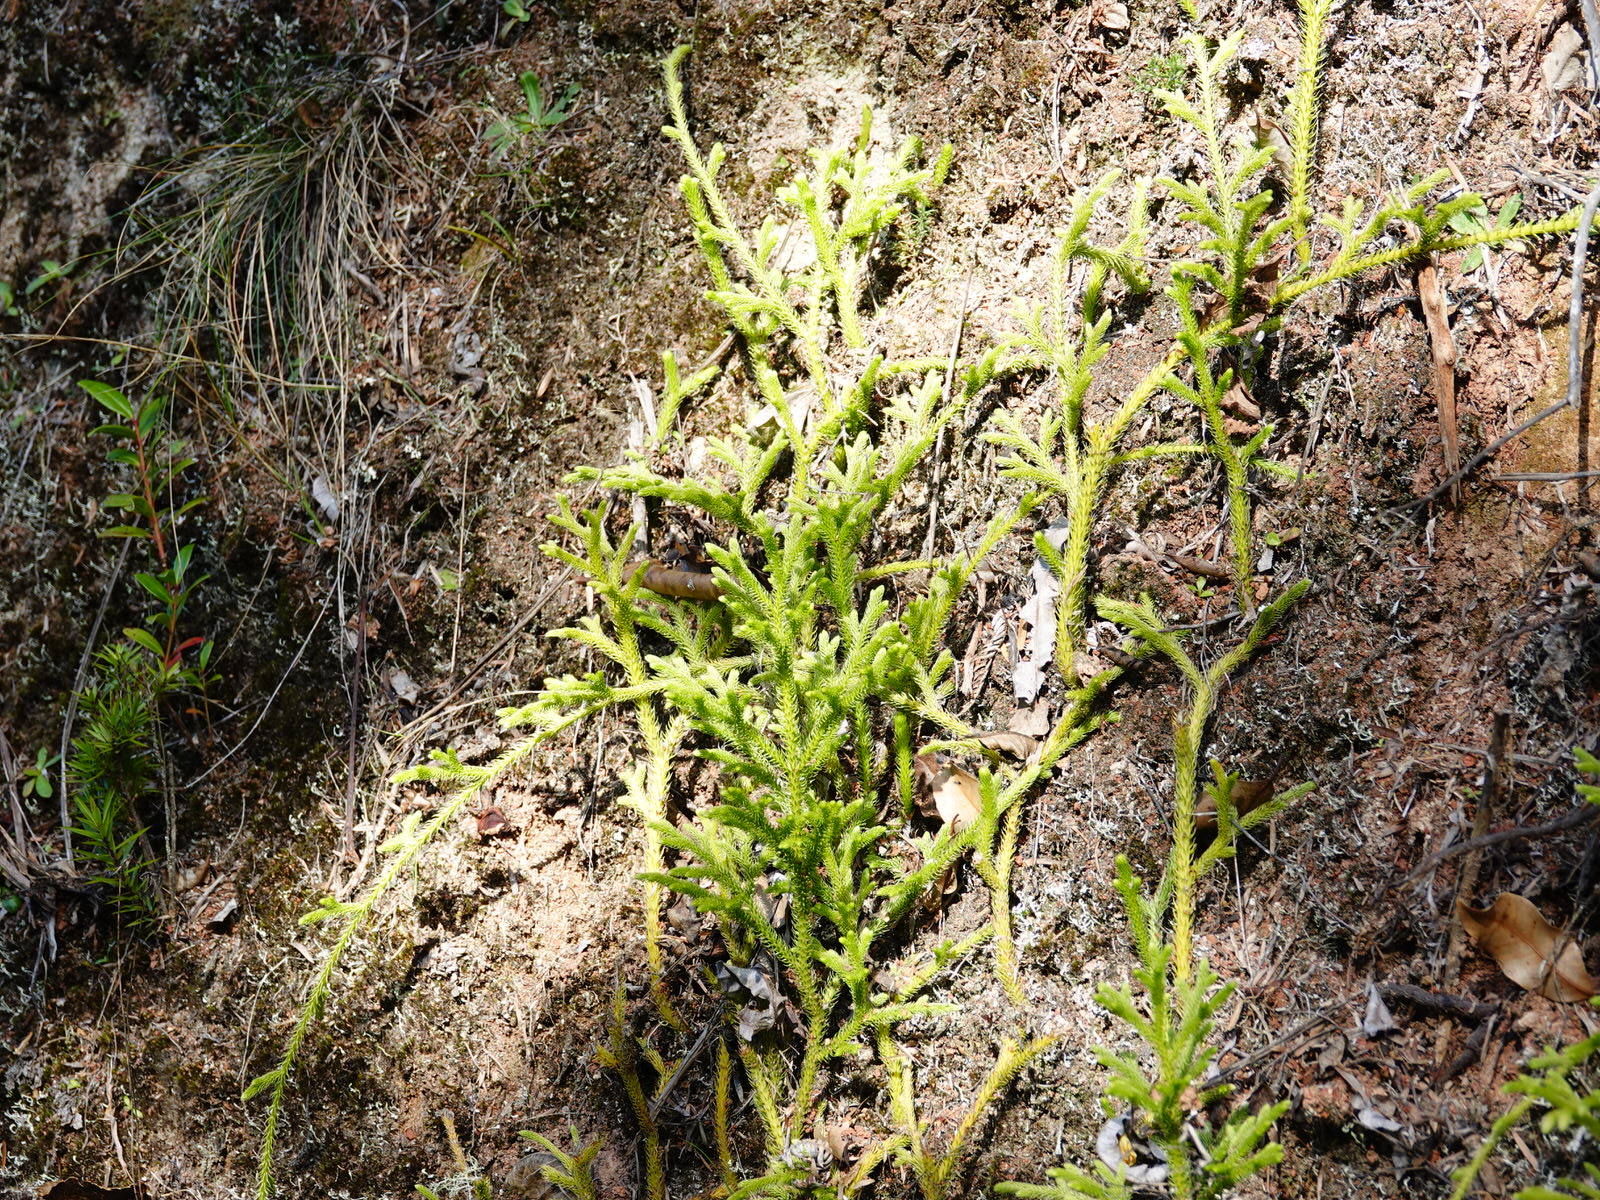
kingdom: Plantae
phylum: Tracheophyta
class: Lycopodiopsida
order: Lycopodiales
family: Lycopodiaceae
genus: Palhinhaea
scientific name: Palhinhaea cernua
